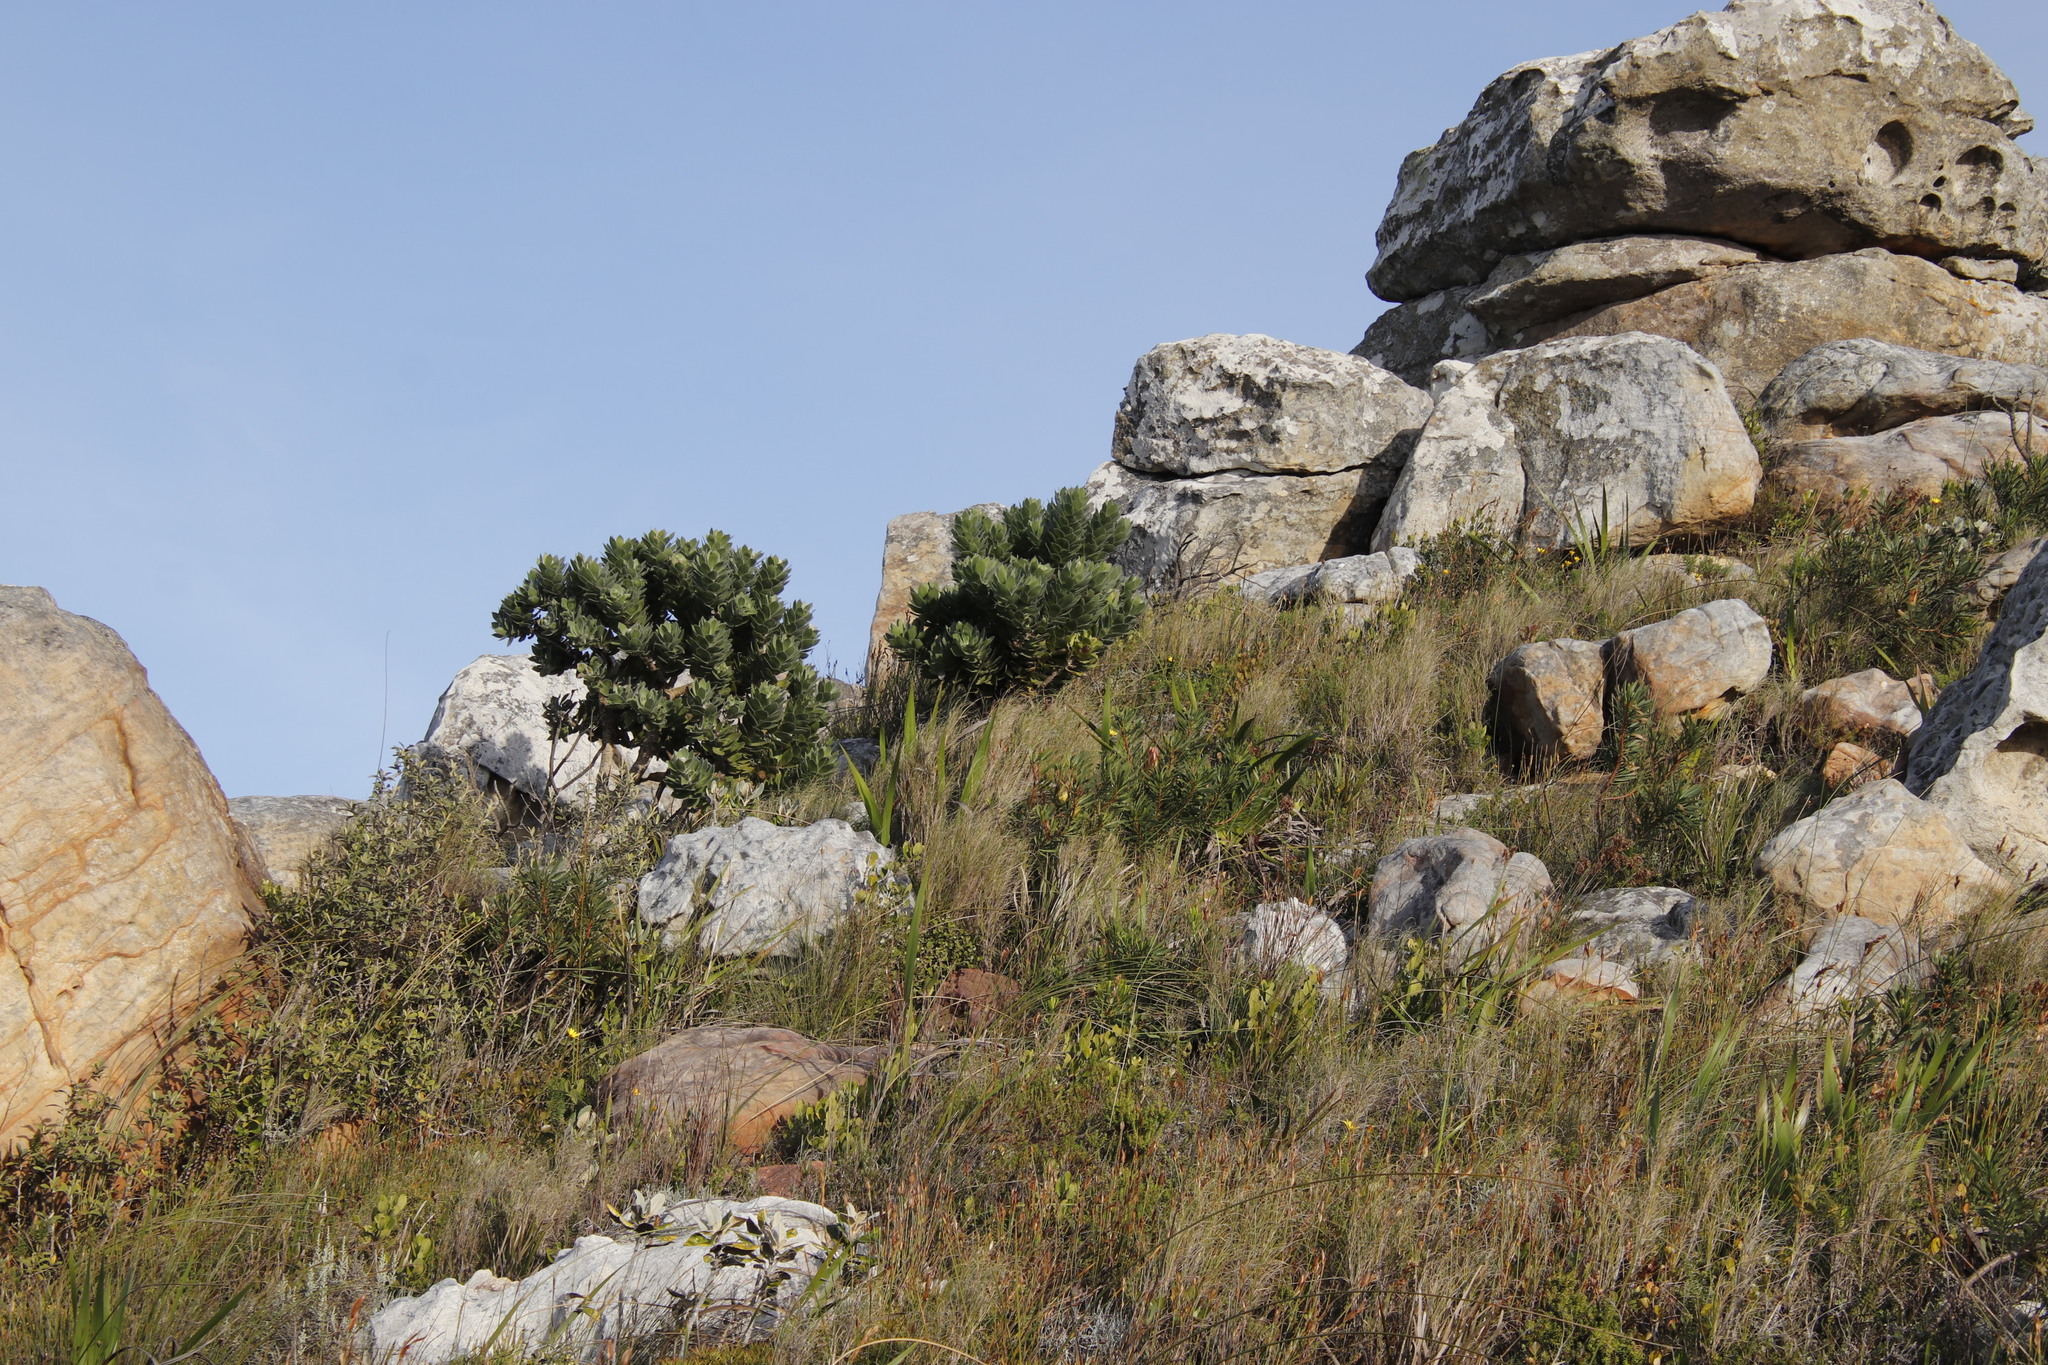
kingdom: Plantae
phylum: Tracheophyta
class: Magnoliopsida
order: Proteales
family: Proteaceae
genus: Leucospermum
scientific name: Leucospermum conocarpodendron
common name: Tree pincushion
